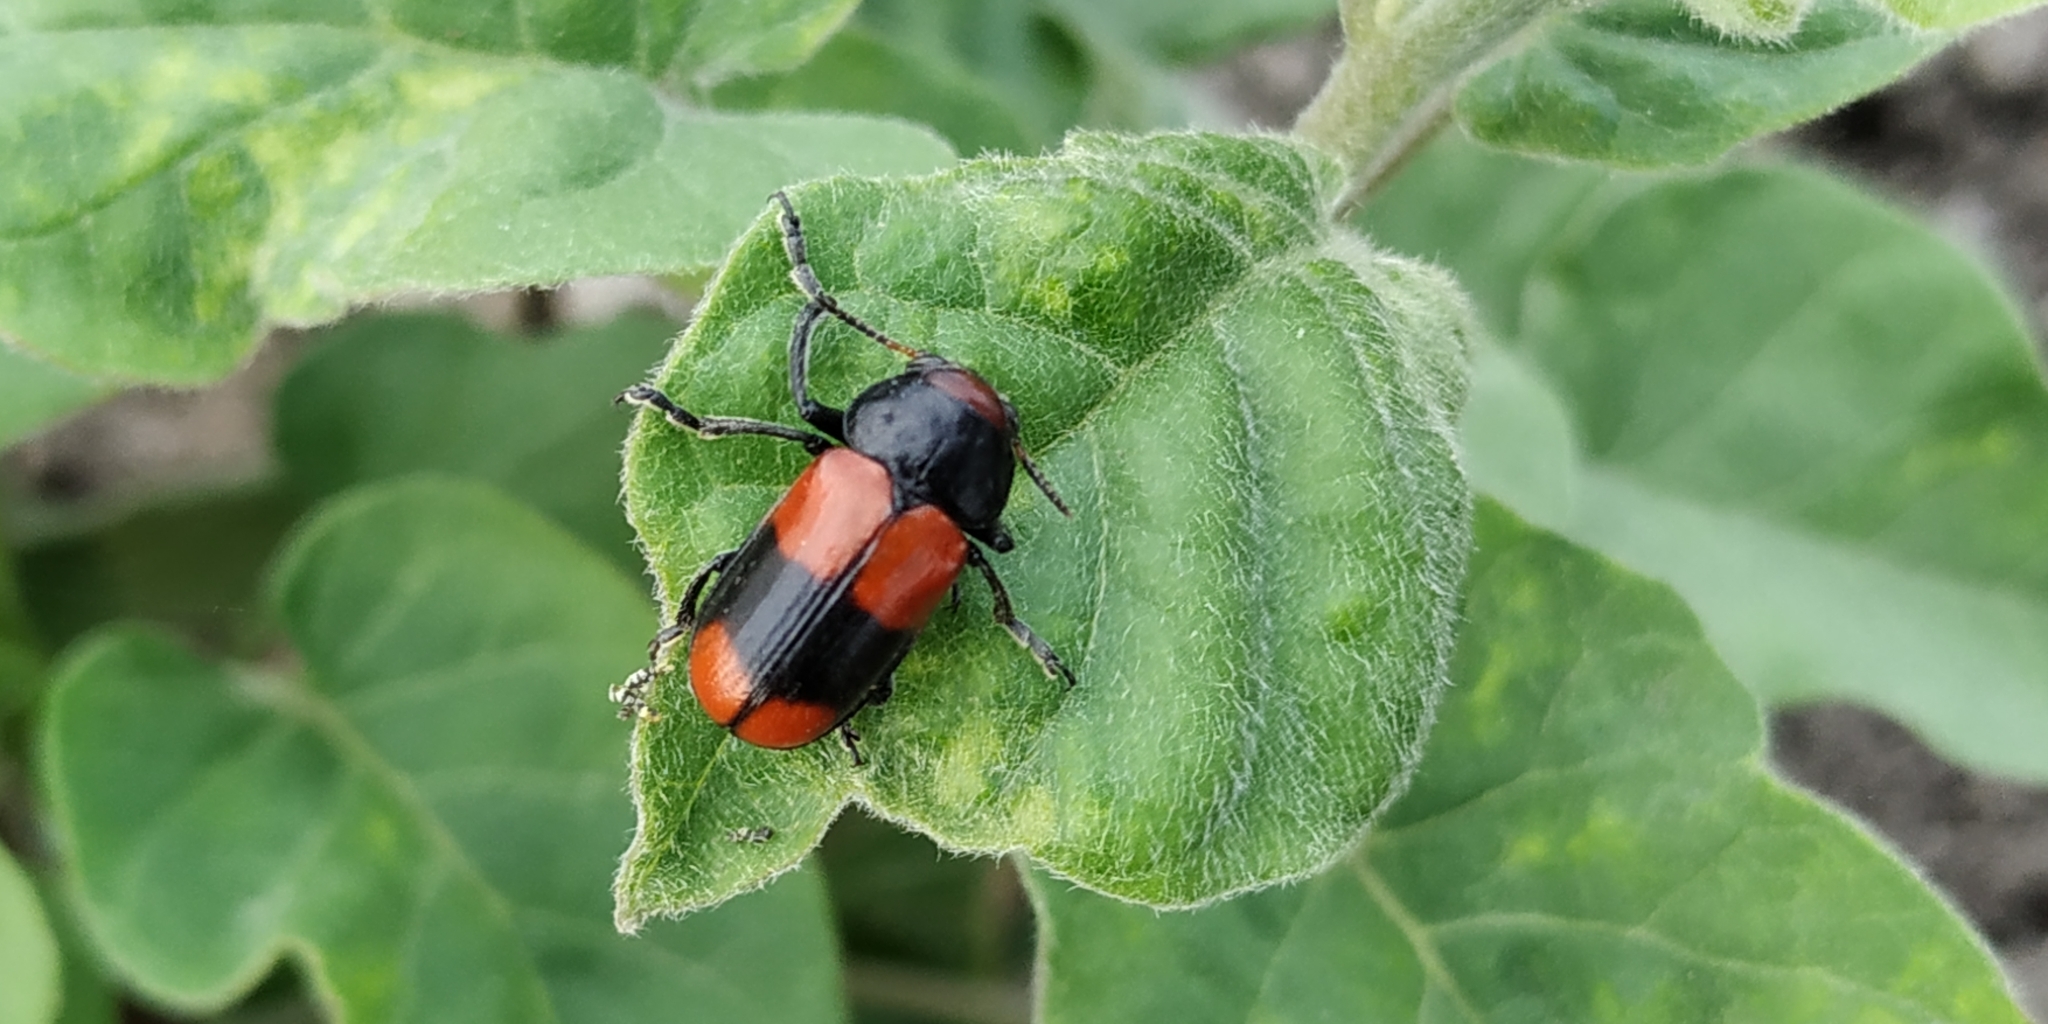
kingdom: Animalia
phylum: Arthropoda
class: Insecta
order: Coleoptera
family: Chrysomelidae
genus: Anomoea
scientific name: Anomoea rufifrons
